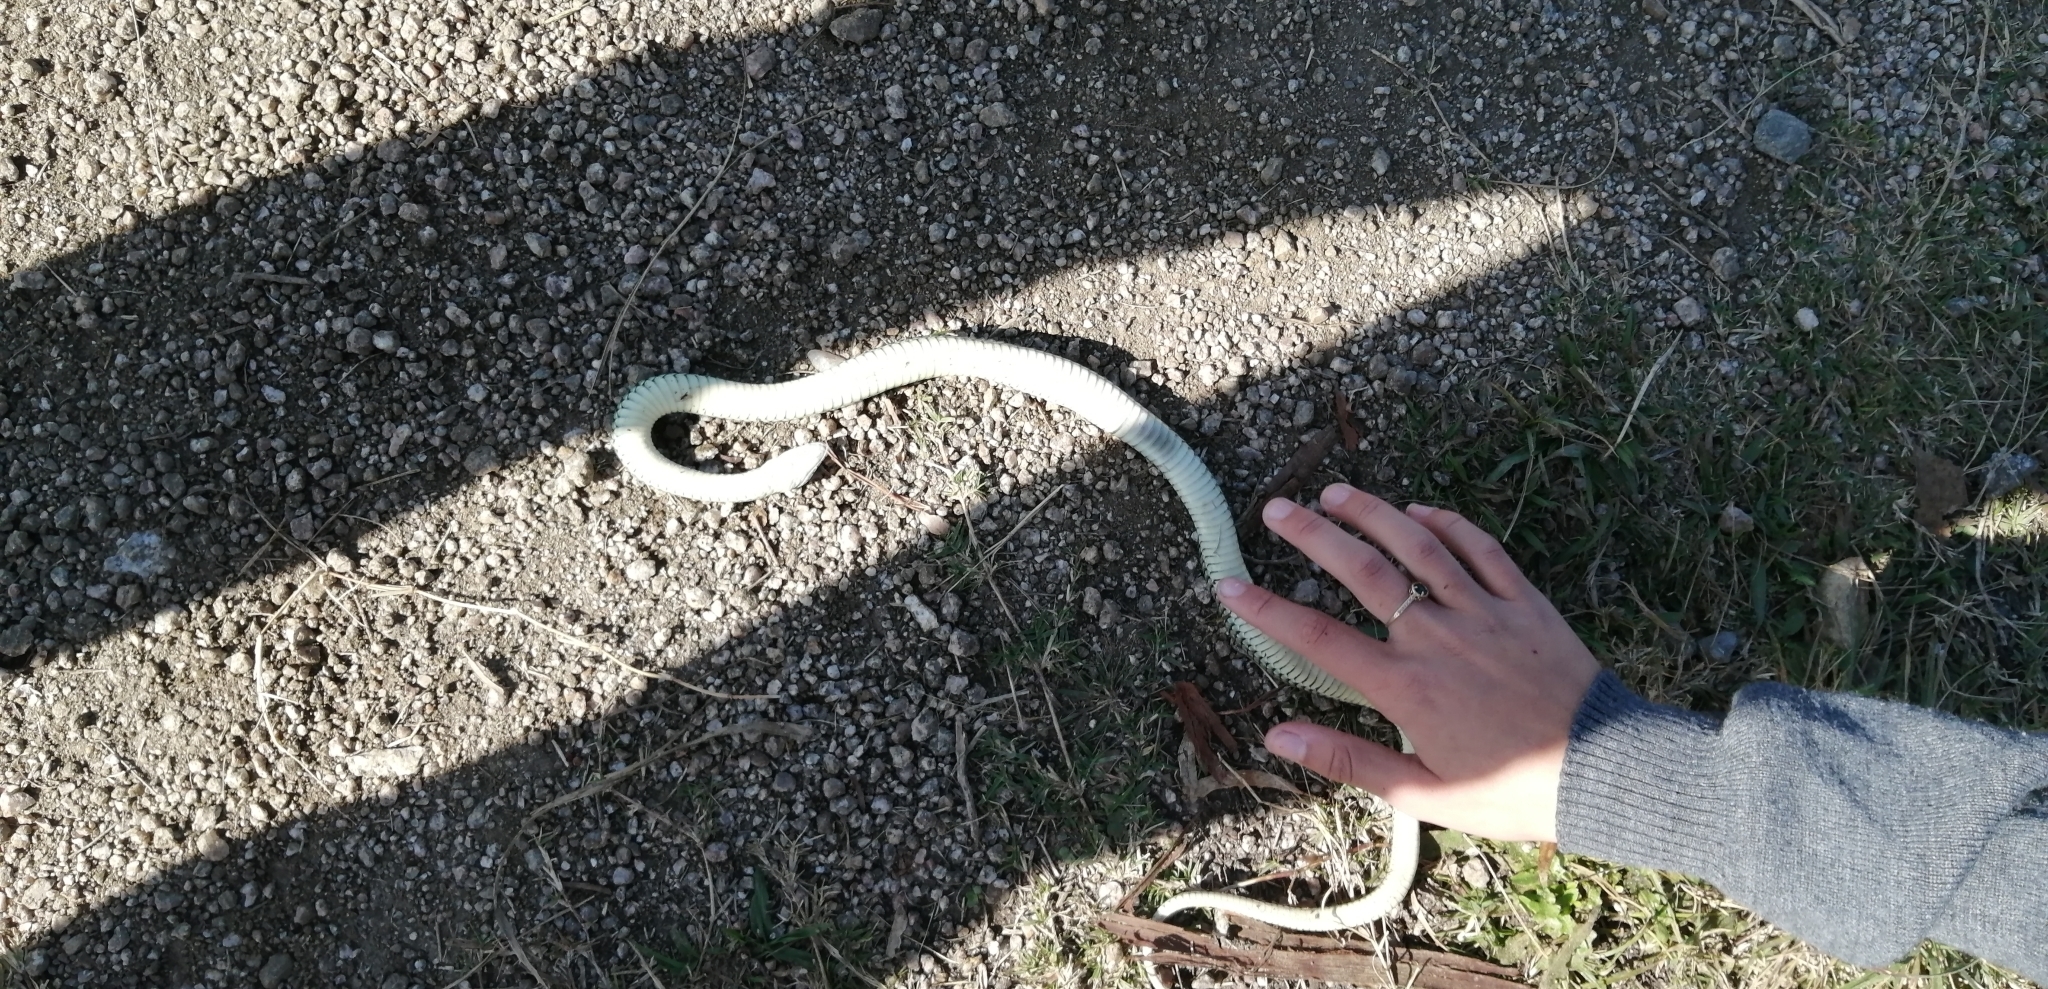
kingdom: Animalia
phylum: Chordata
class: Squamata
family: Colubridae
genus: Philodryas
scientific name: Philodryas patagoniensis
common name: Patagonia green racer
